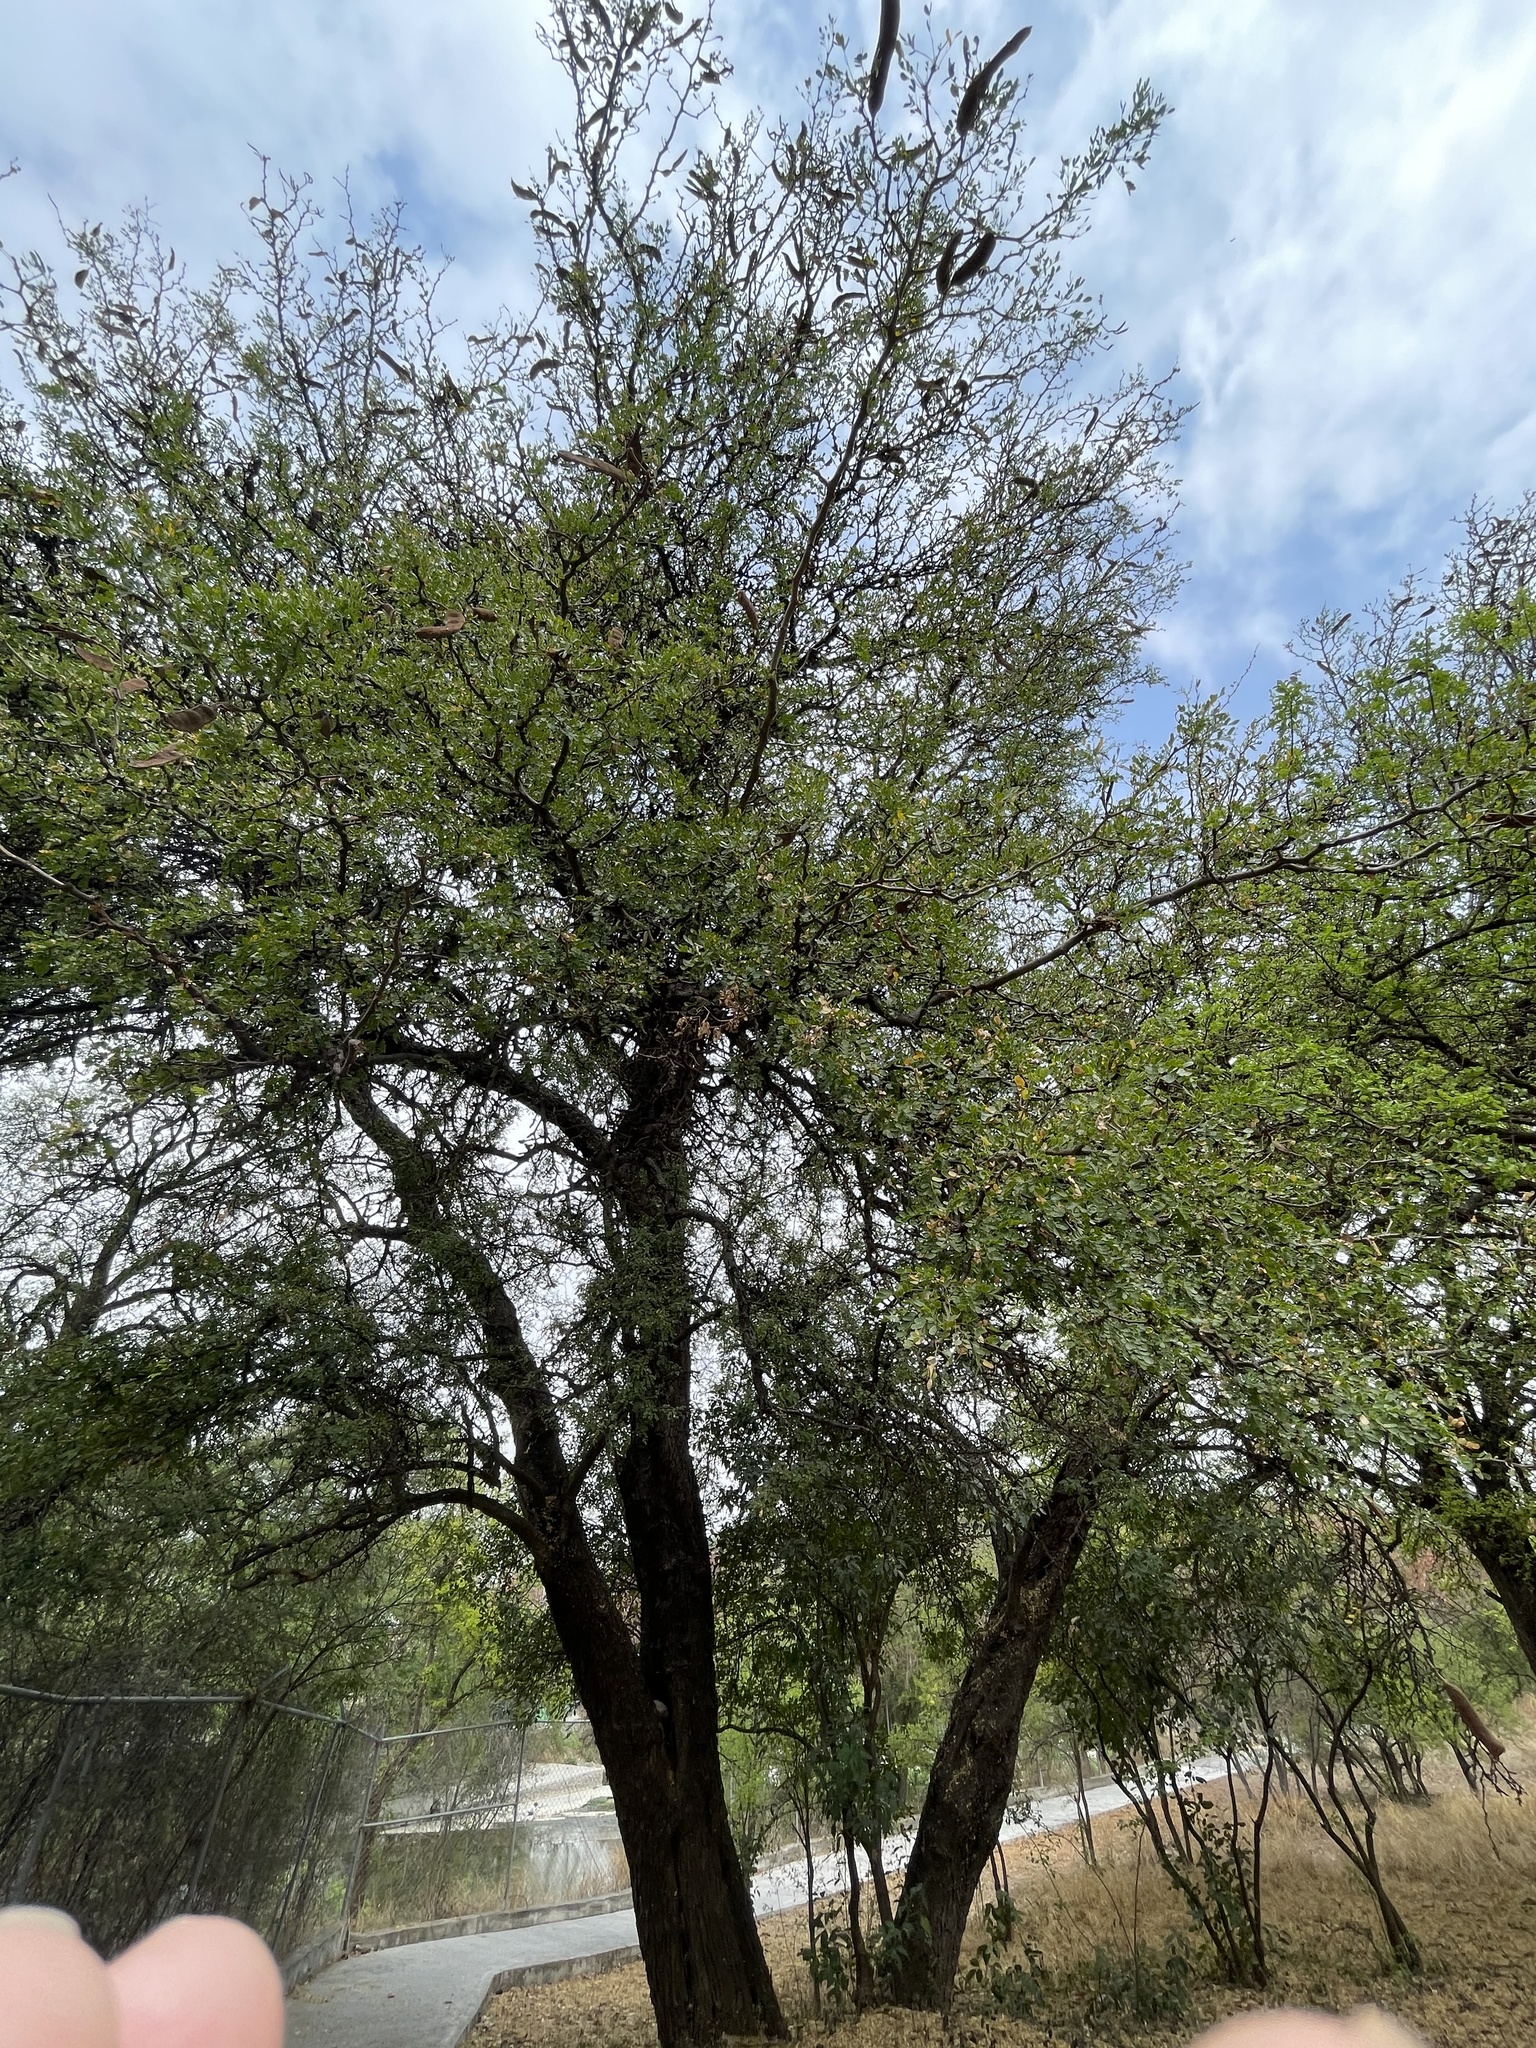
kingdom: Plantae
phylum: Tracheophyta
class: Magnoliopsida
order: Fabales
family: Fabaceae
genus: Ebenopsis
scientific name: Ebenopsis ebano
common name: Ebony blackbead
